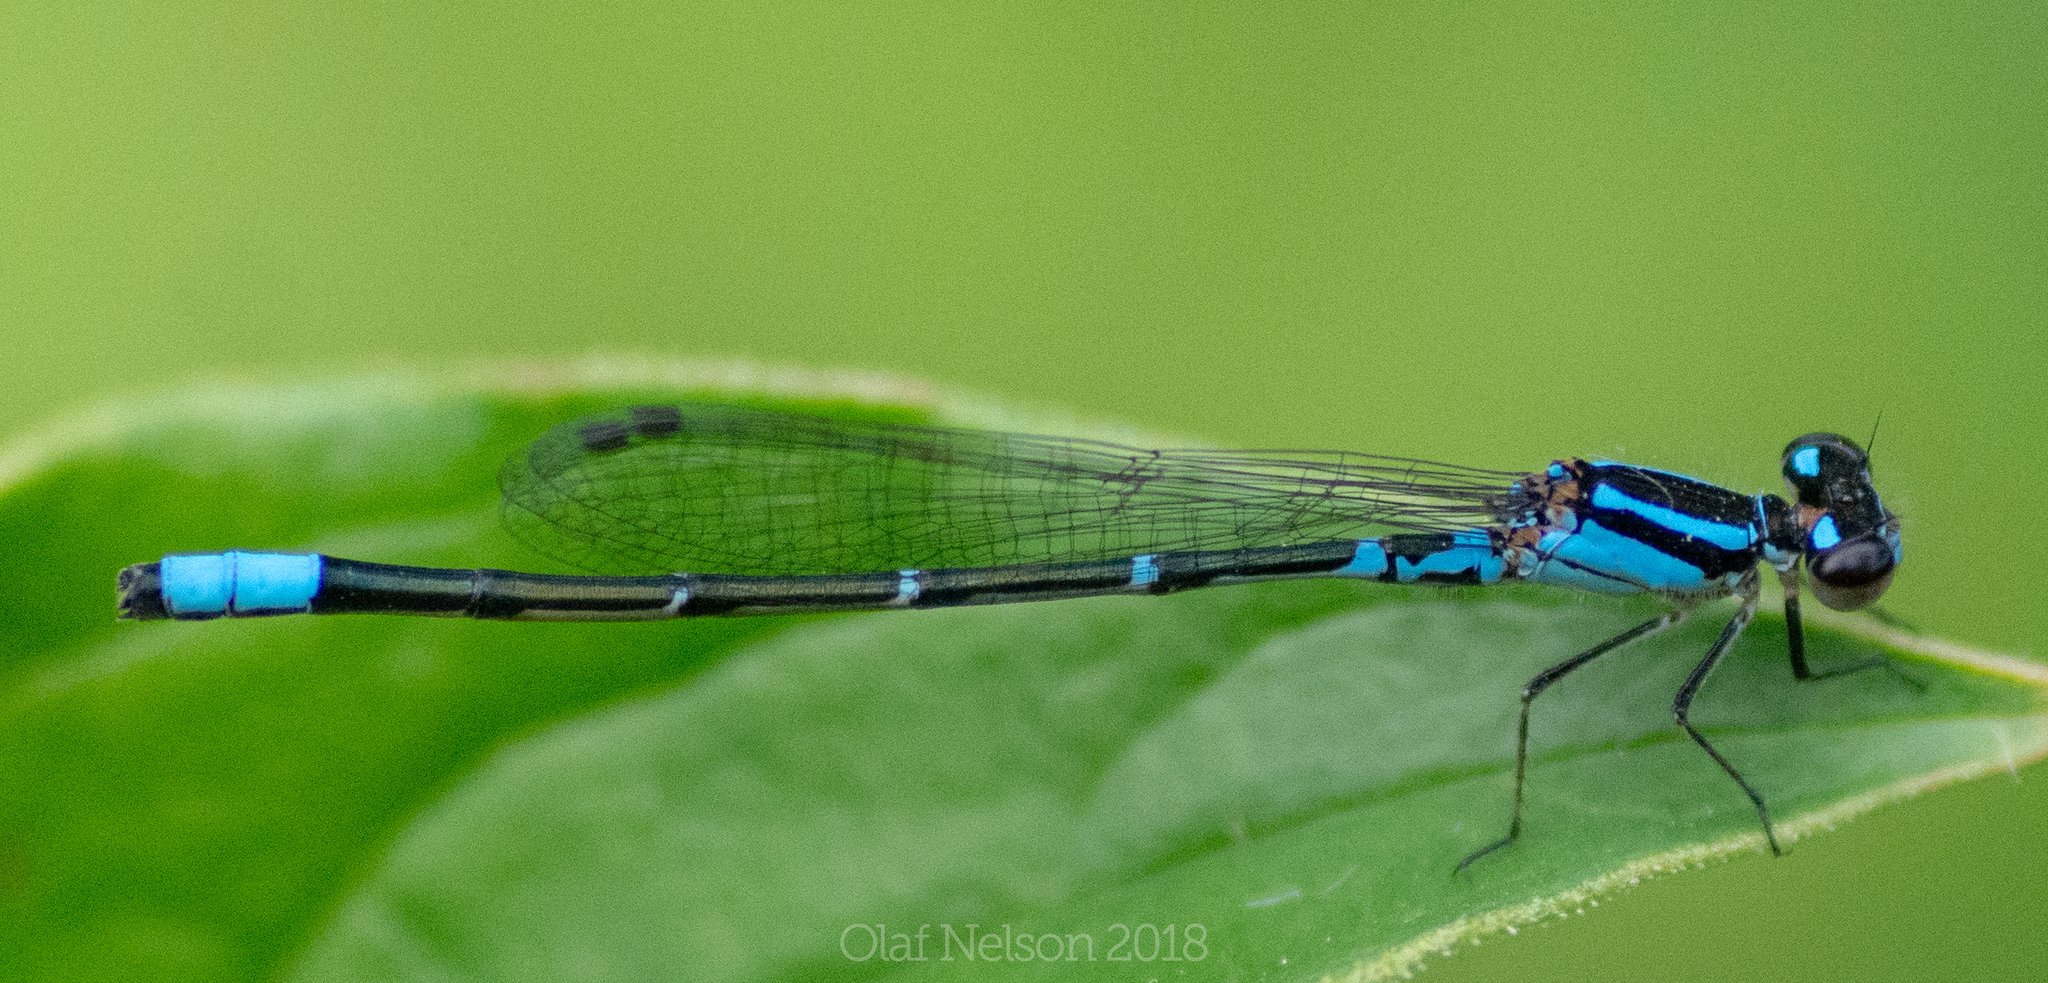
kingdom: Animalia
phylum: Arthropoda
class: Insecta
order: Odonata
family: Coenagrionidae
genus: Enallagma
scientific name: Enallagma geminatum
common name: Skimming bluet
